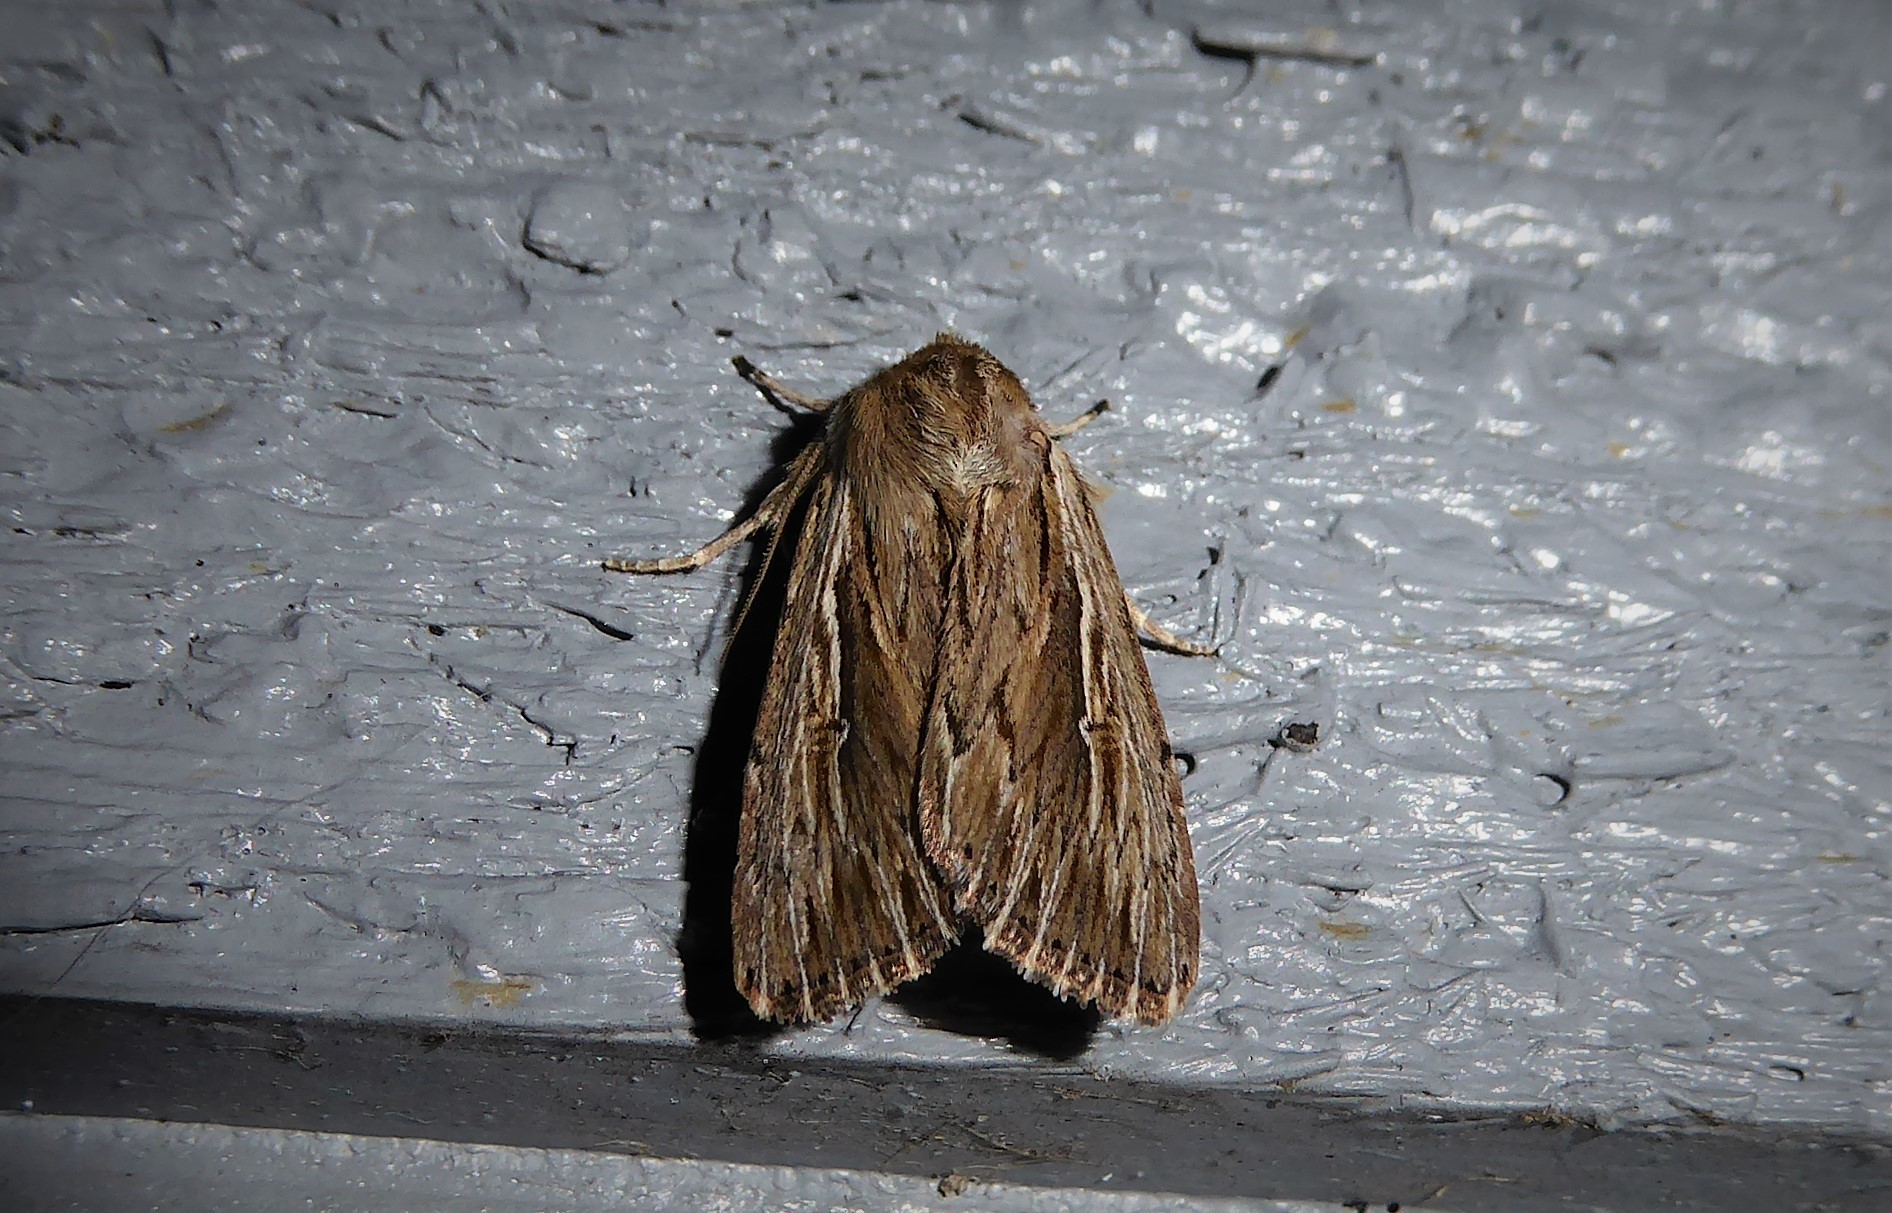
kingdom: Animalia
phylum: Arthropoda
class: Insecta
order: Lepidoptera
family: Noctuidae
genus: Persectania
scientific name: Persectania aversa
